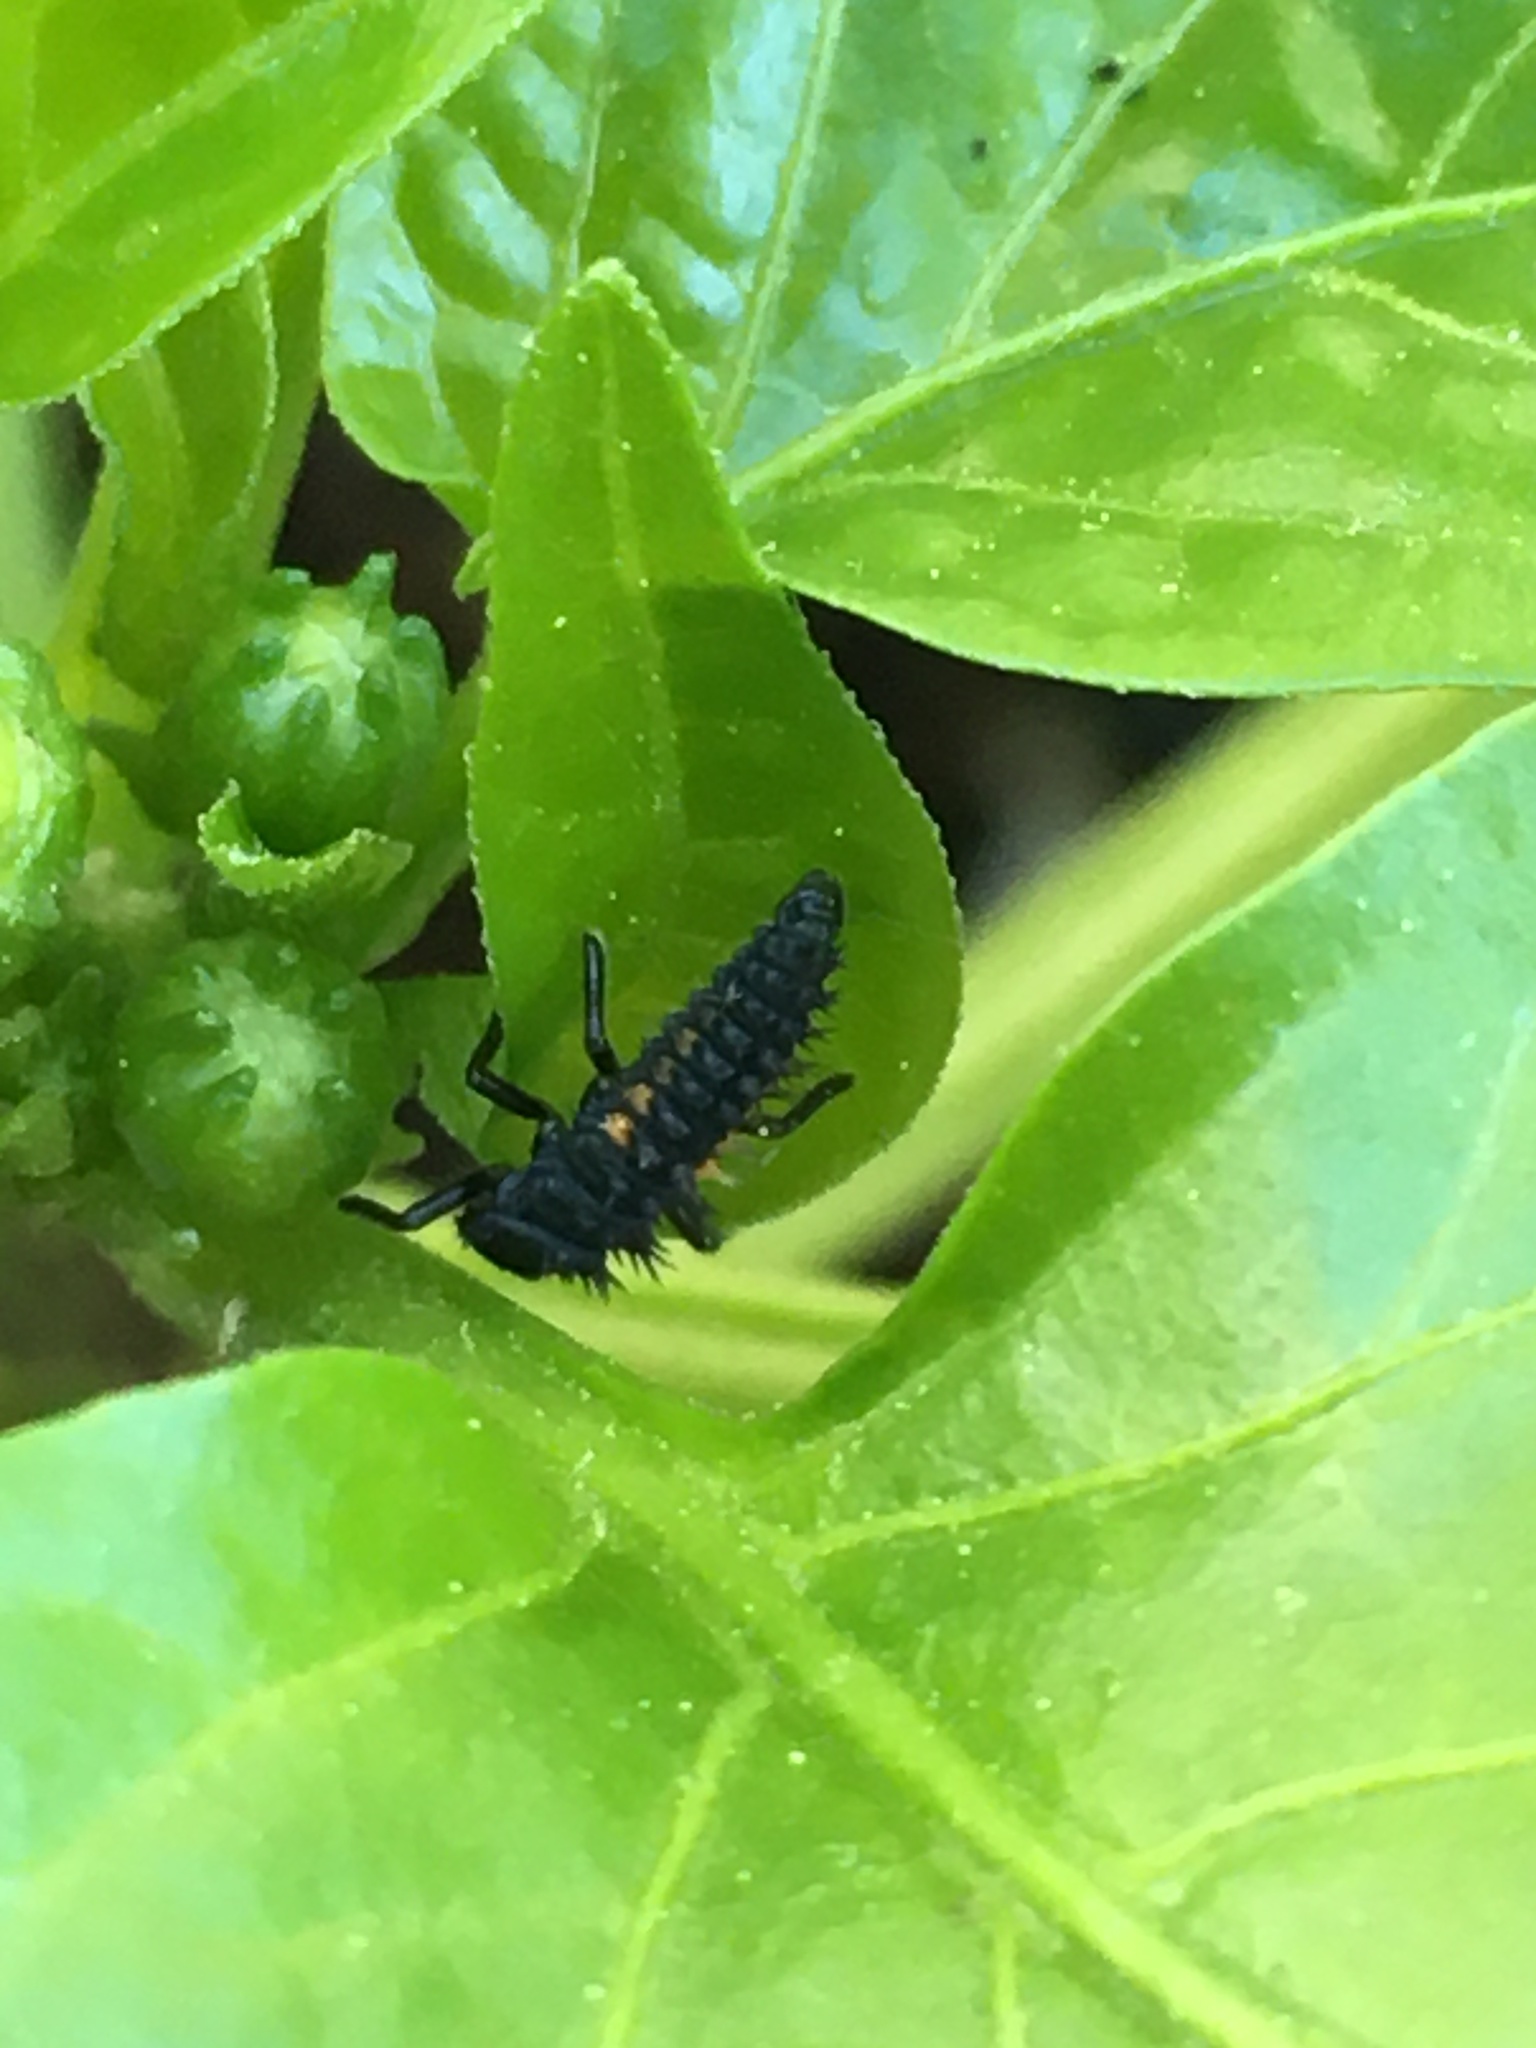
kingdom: Animalia
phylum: Arthropoda
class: Insecta
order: Coleoptera
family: Coccinellidae
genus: Harmonia
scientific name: Harmonia axyridis
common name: Harlequin ladybird
